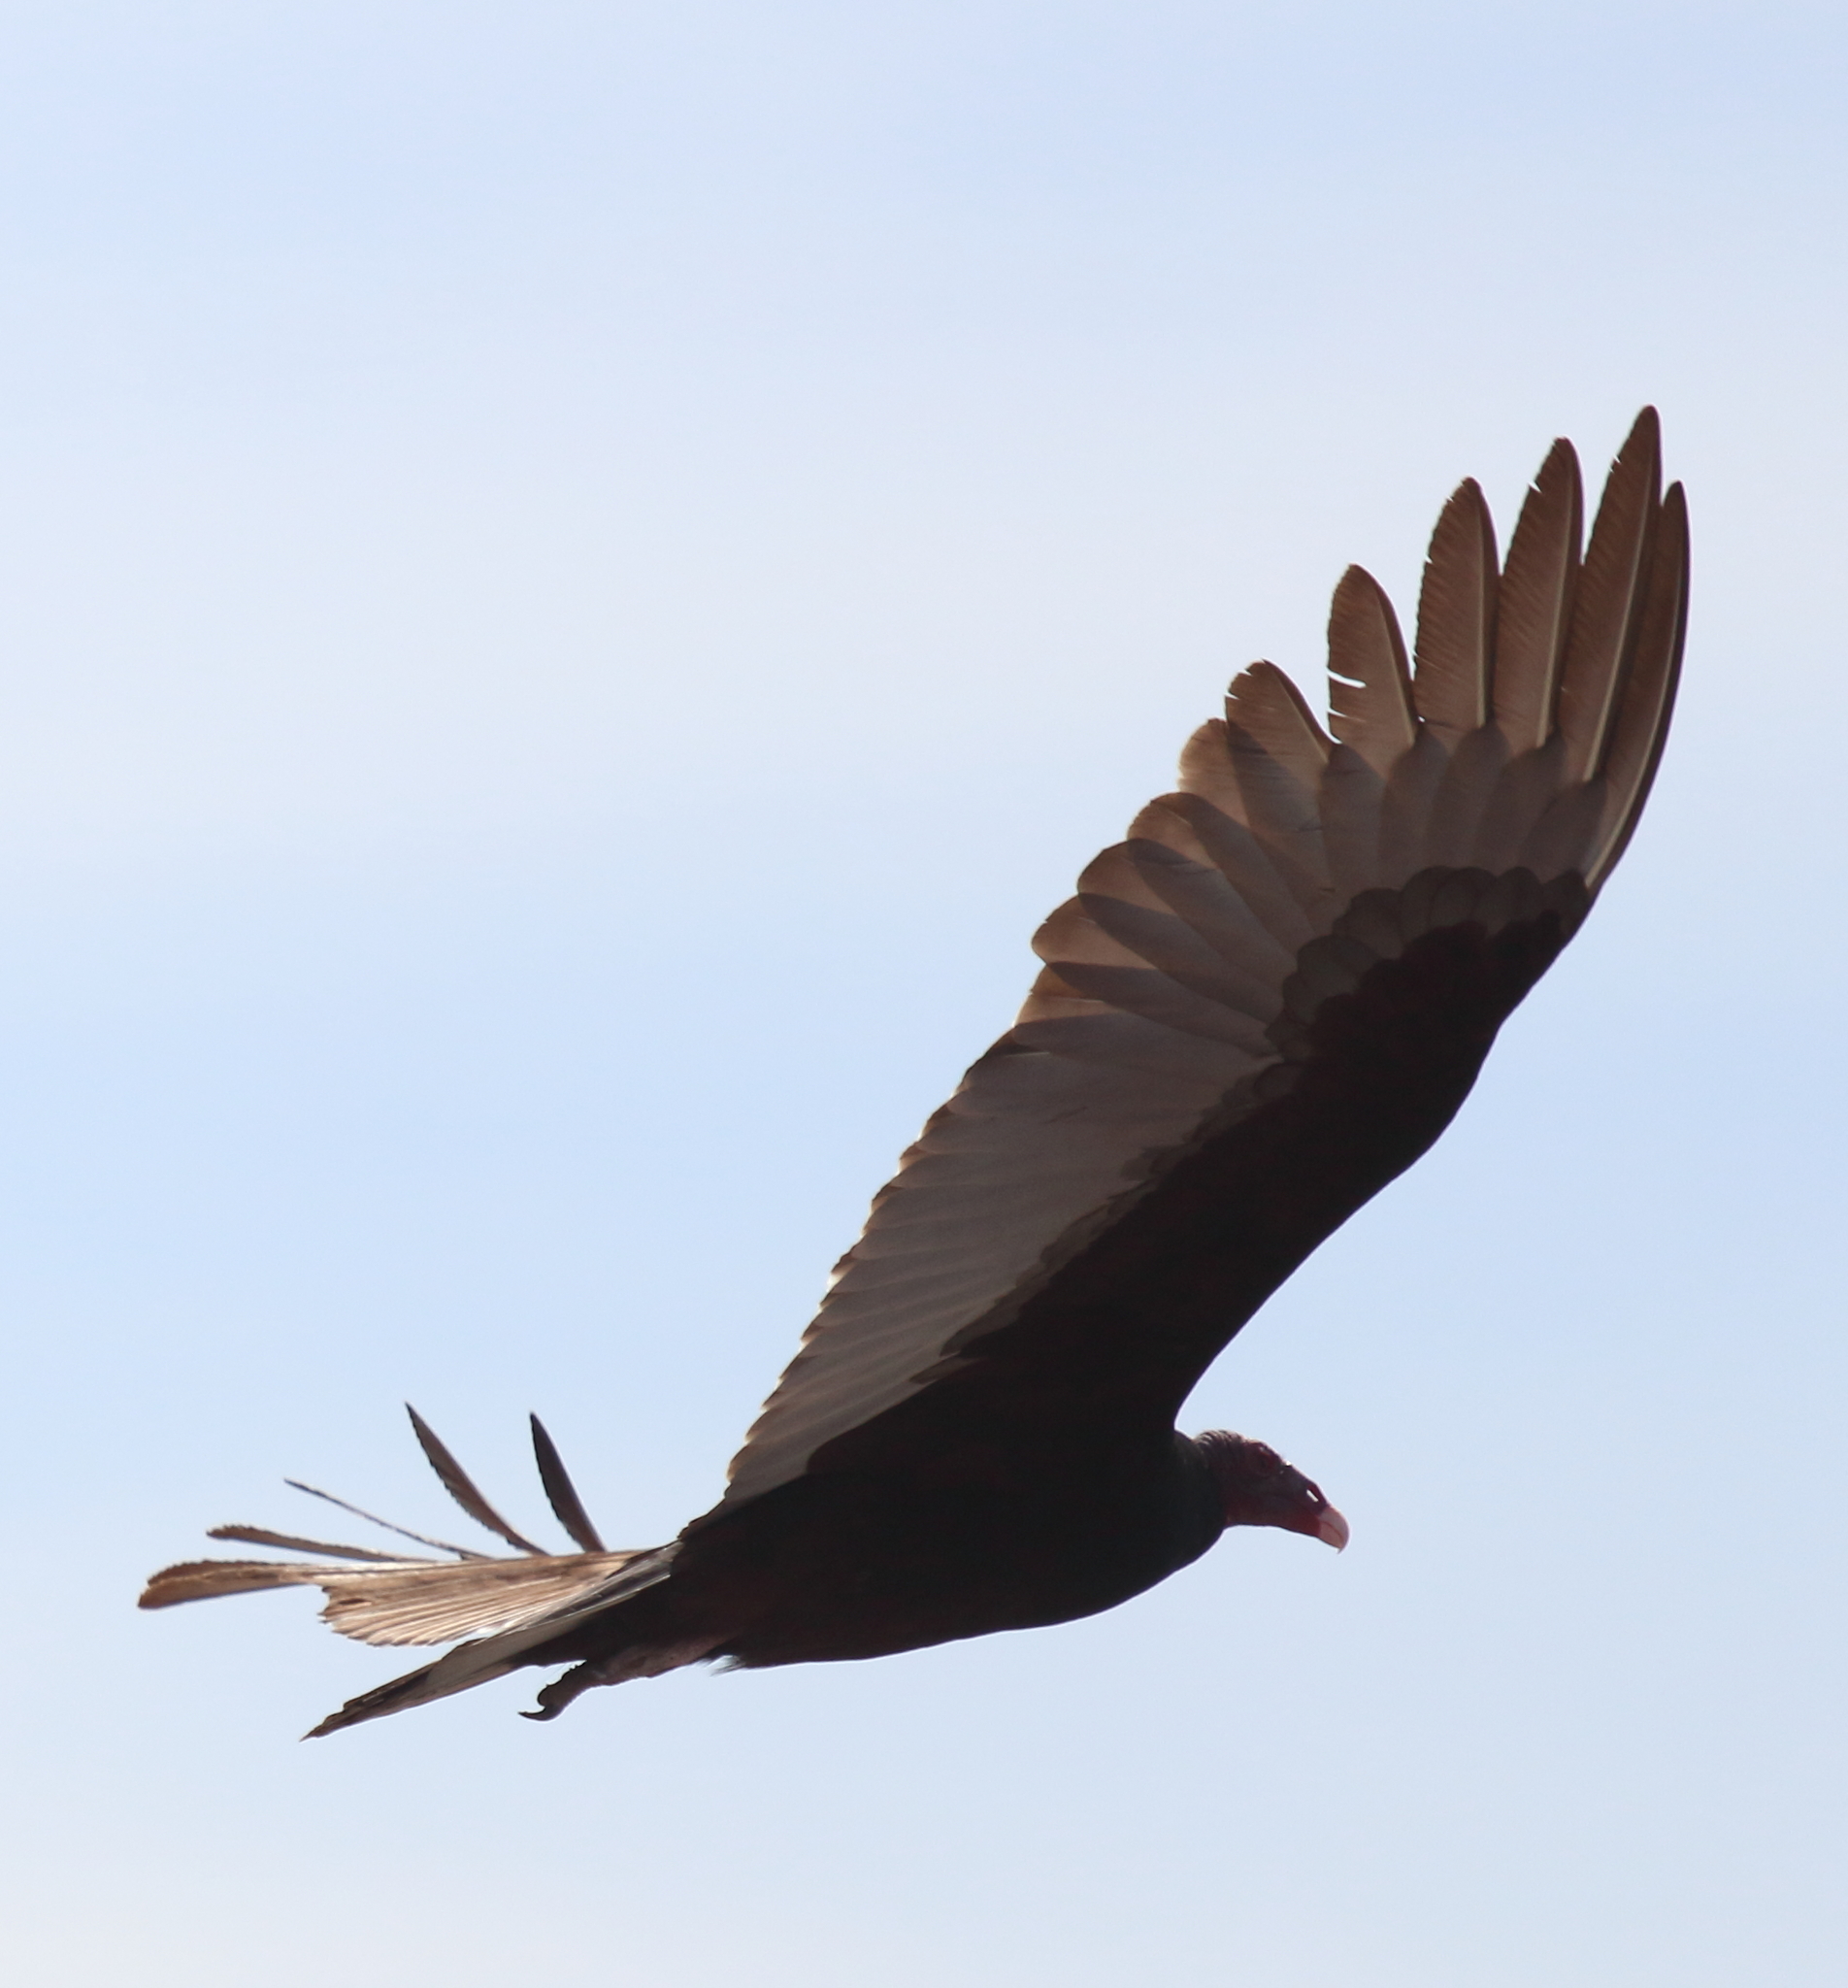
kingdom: Animalia
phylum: Chordata
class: Aves
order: Accipitriformes
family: Cathartidae
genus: Cathartes
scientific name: Cathartes aura
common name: Turkey vulture
